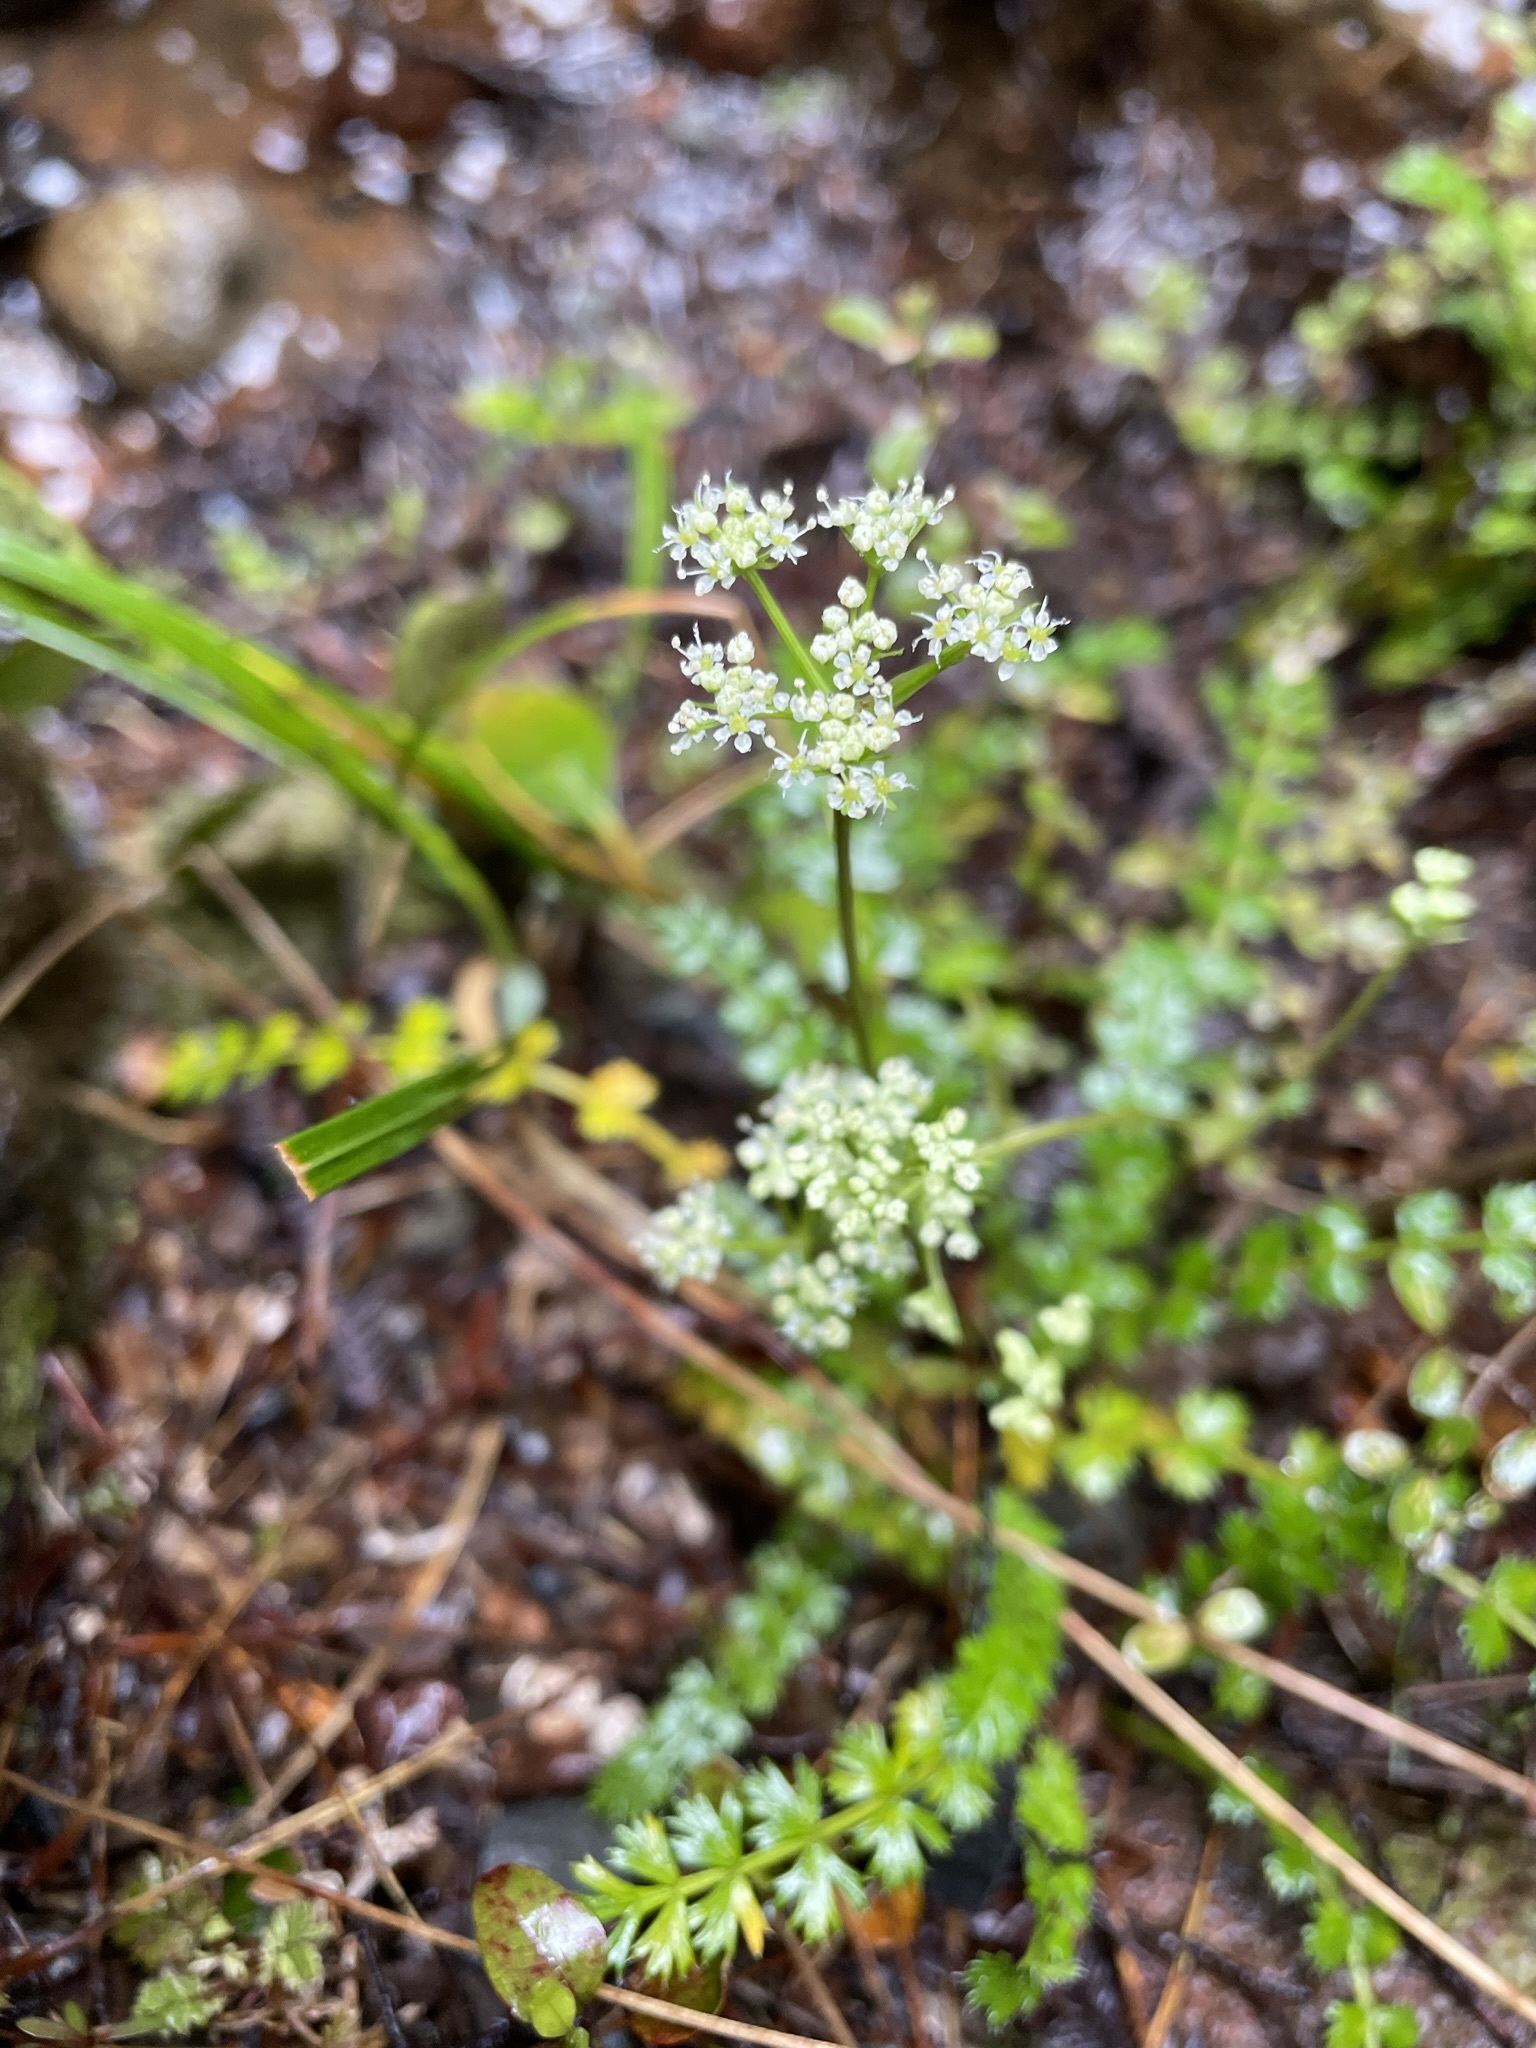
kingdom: Plantae
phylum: Tracheophyta
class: Magnoliopsida
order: Apiales
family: Apiaceae
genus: Anisotome
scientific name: Anisotome aromatica
